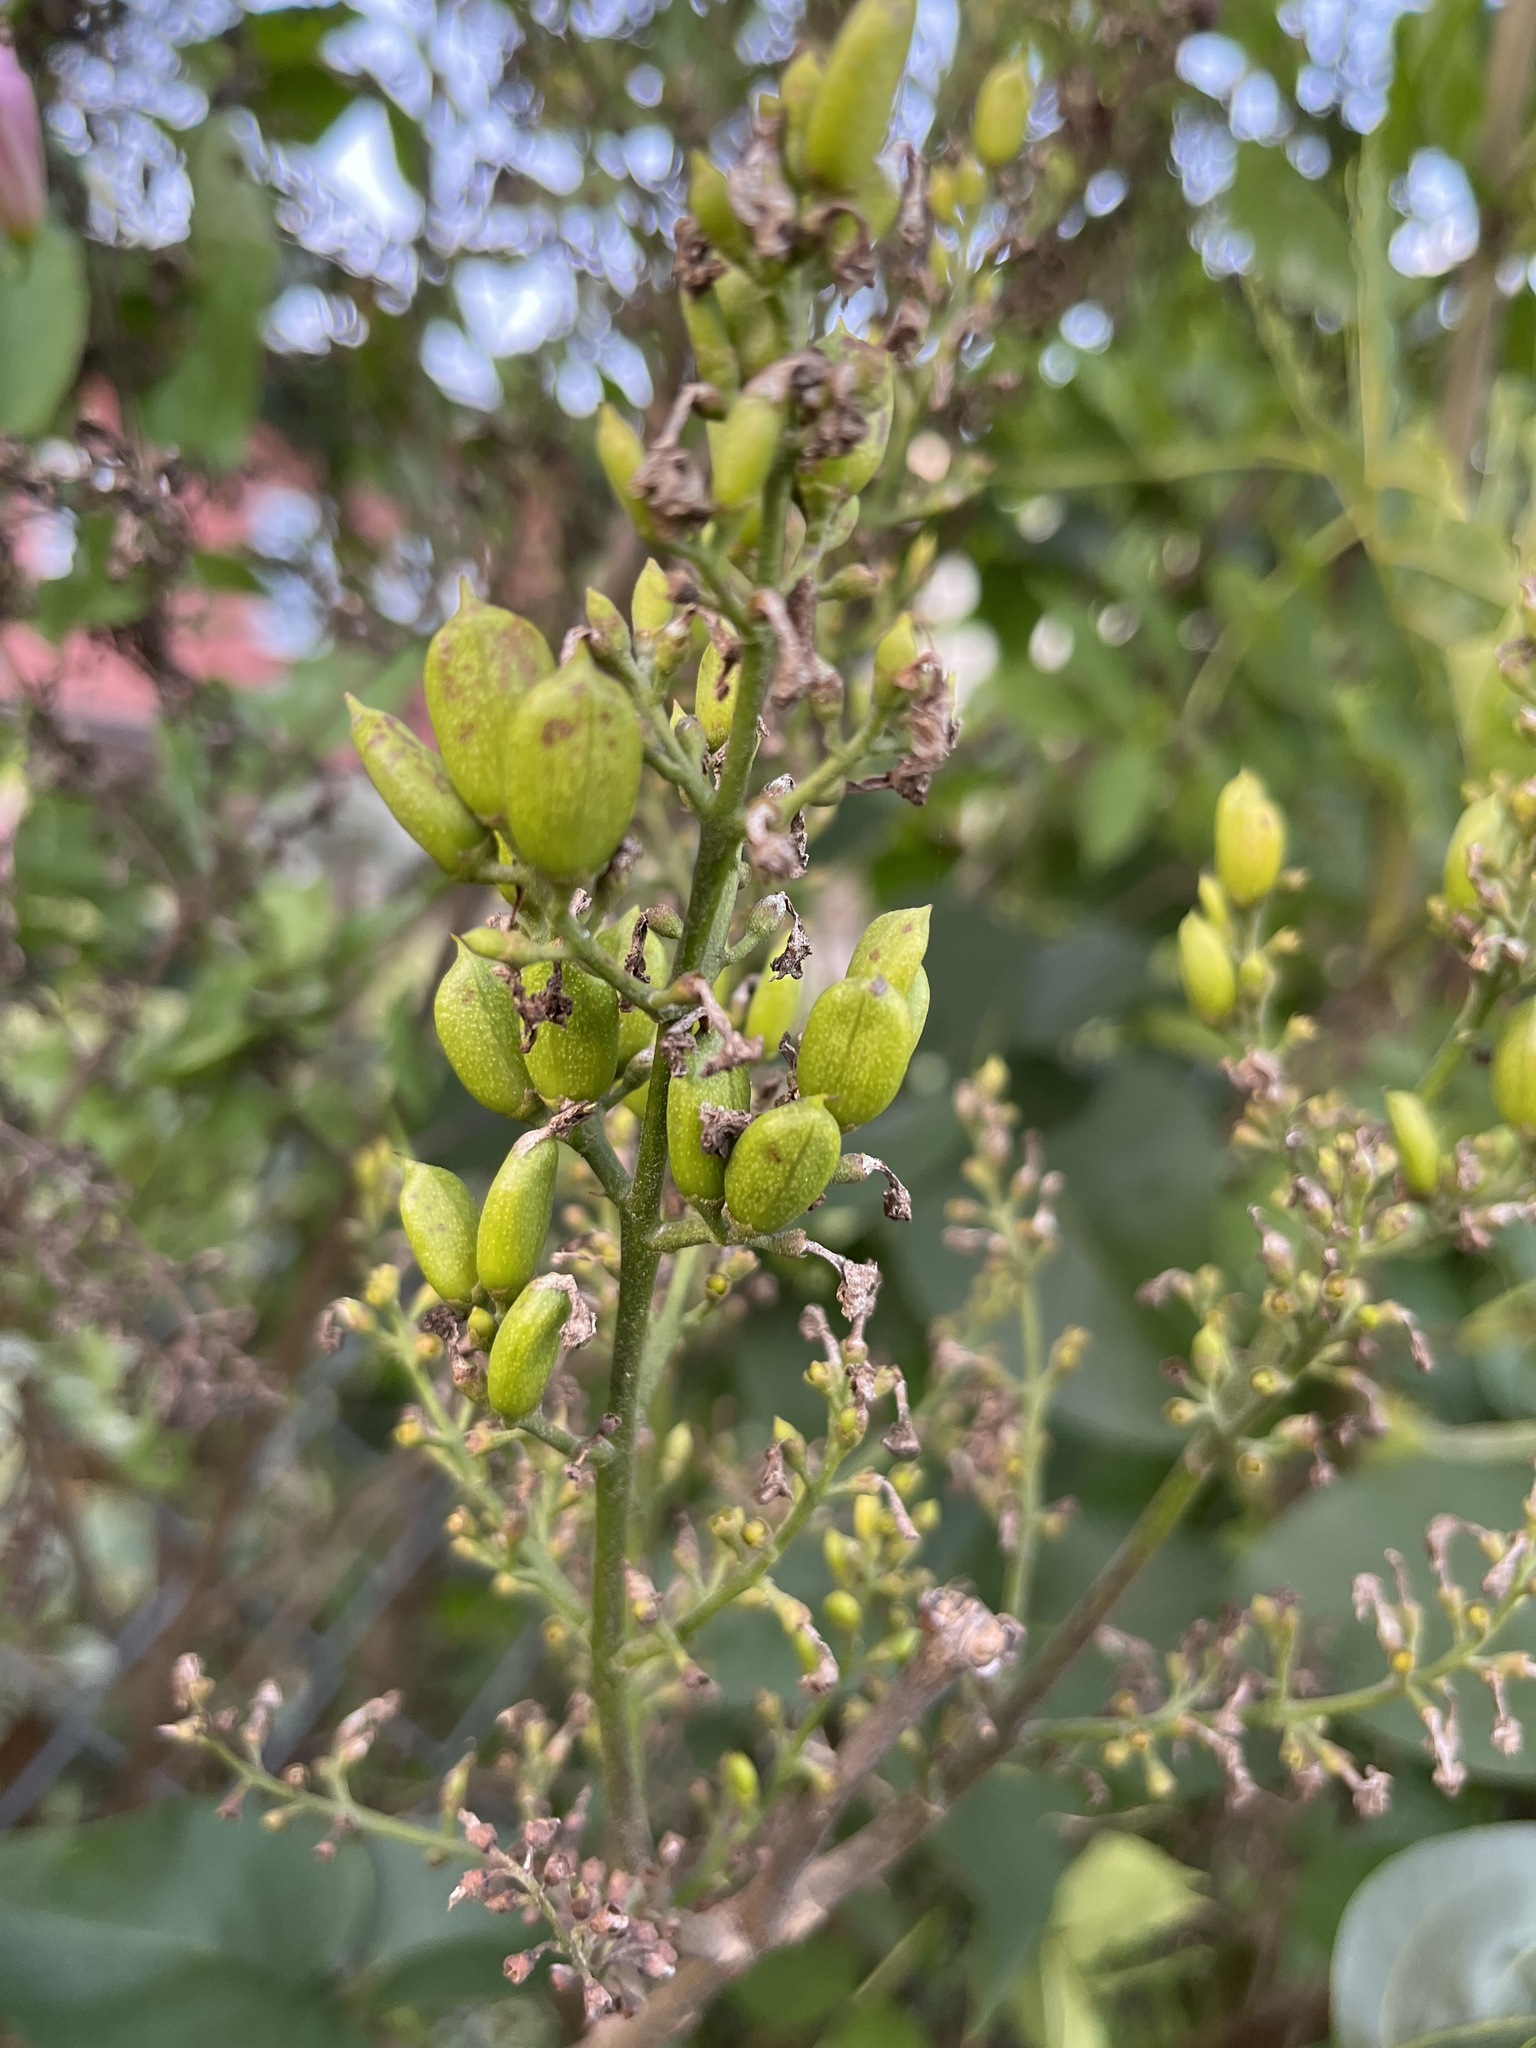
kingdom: Plantae
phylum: Tracheophyta
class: Magnoliopsida
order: Lamiales
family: Oleaceae
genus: Syringa
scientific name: Syringa vulgaris
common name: Common lilac
